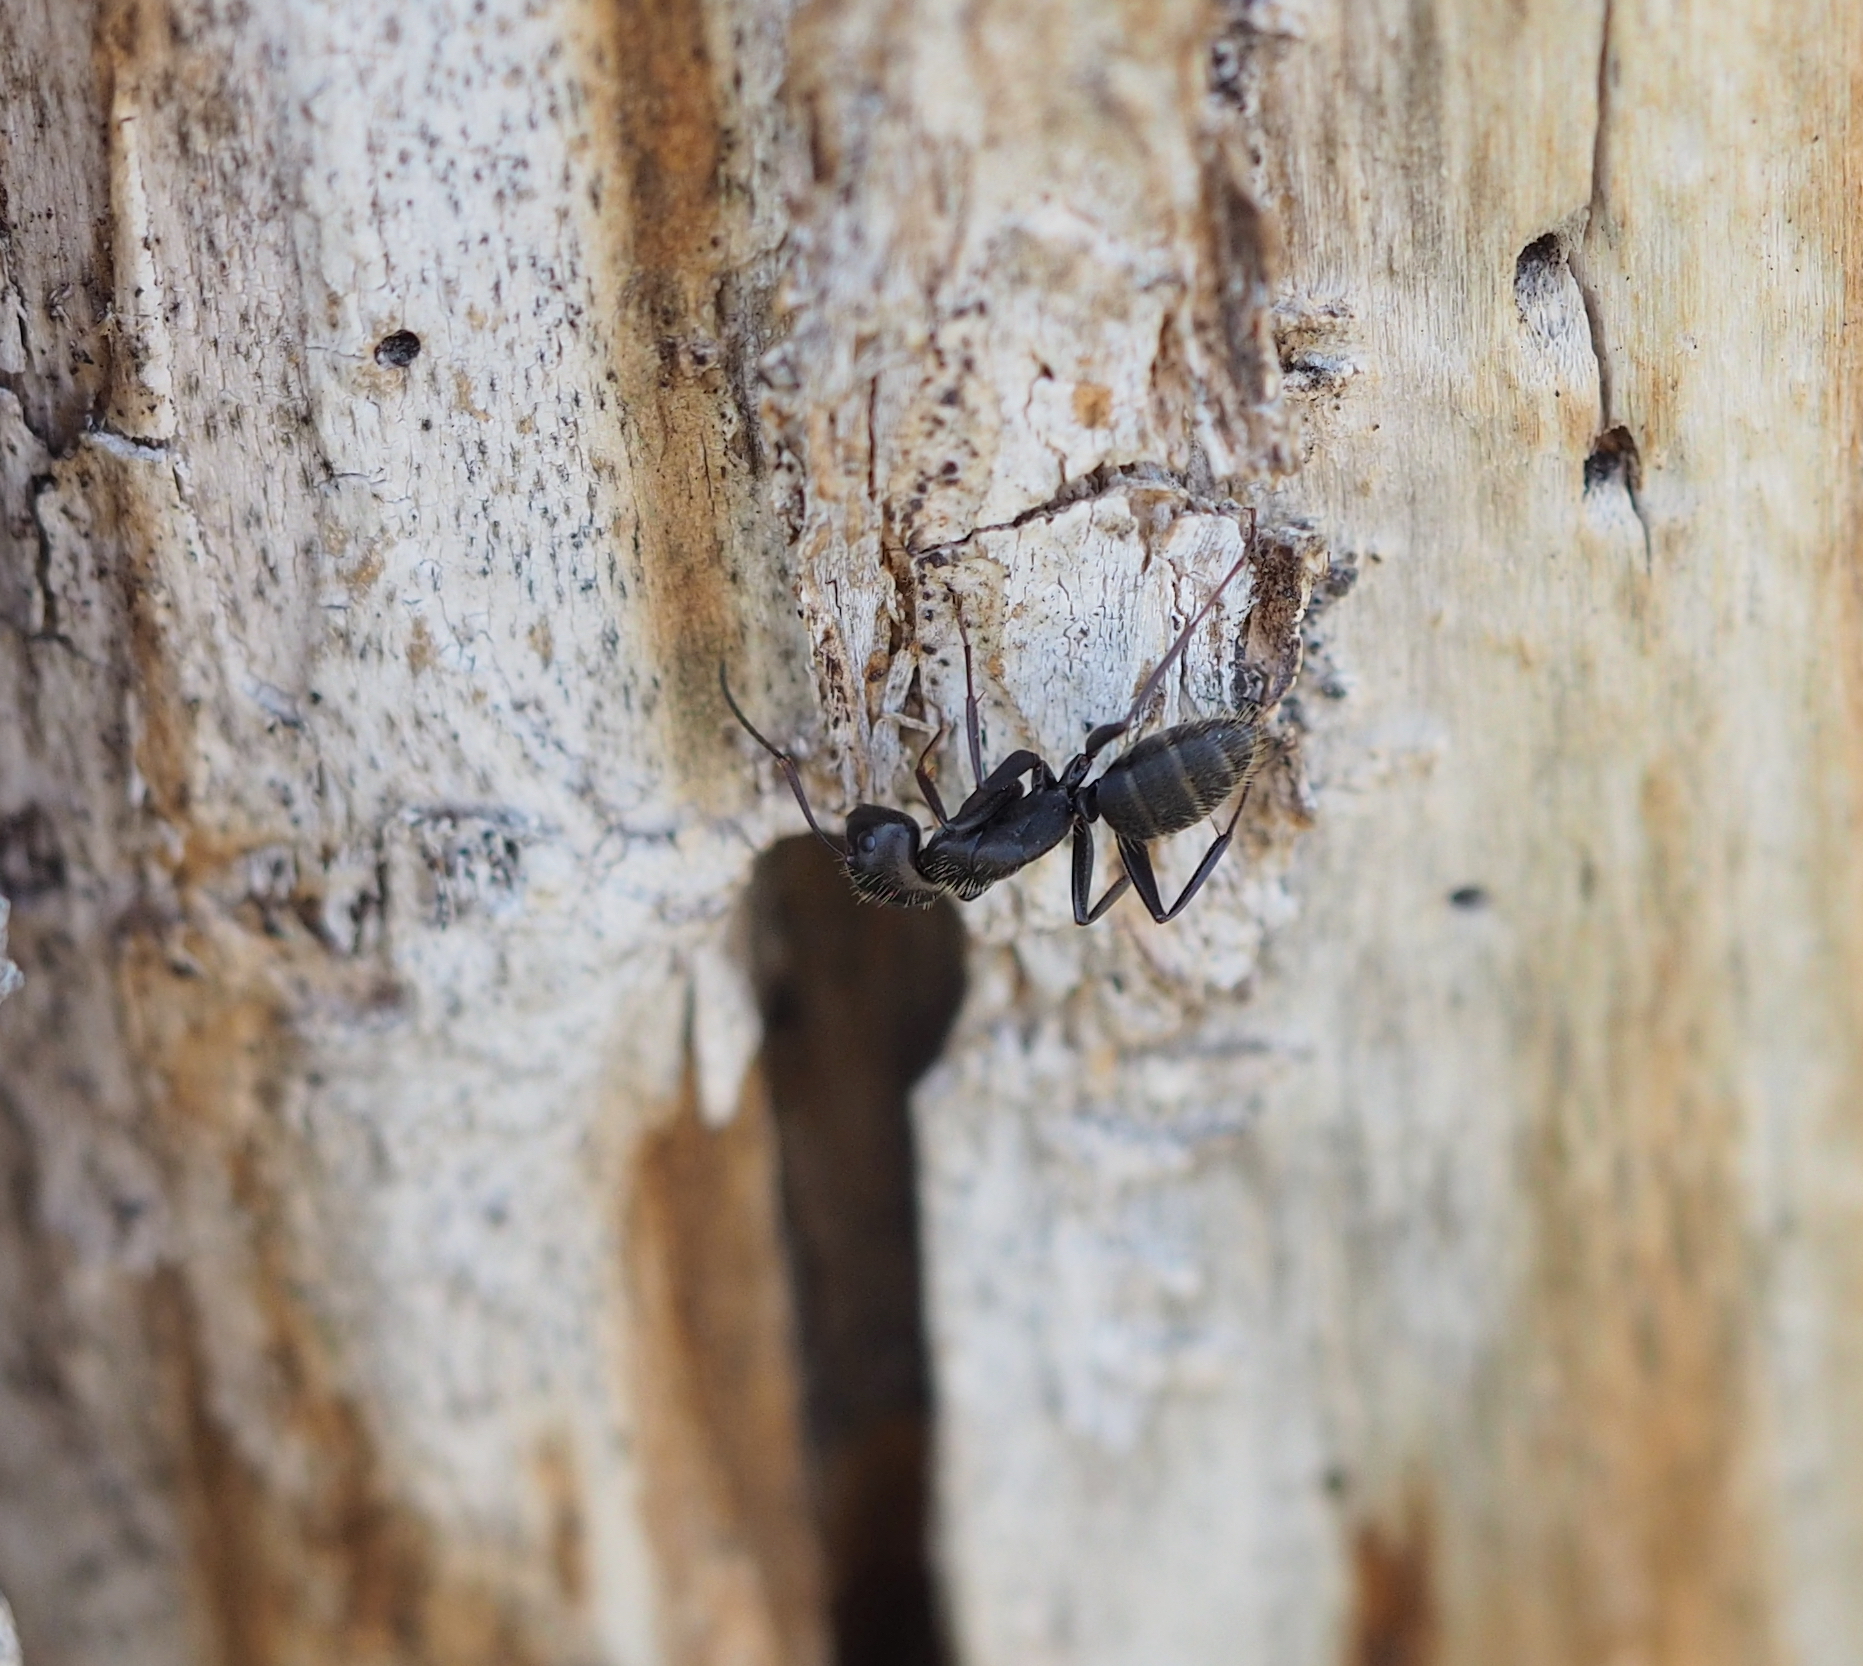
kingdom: Animalia
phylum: Arthropoda
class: Insecta
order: Hymenoptera
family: Formicidae
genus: Camponotus
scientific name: Camponotus vagus
